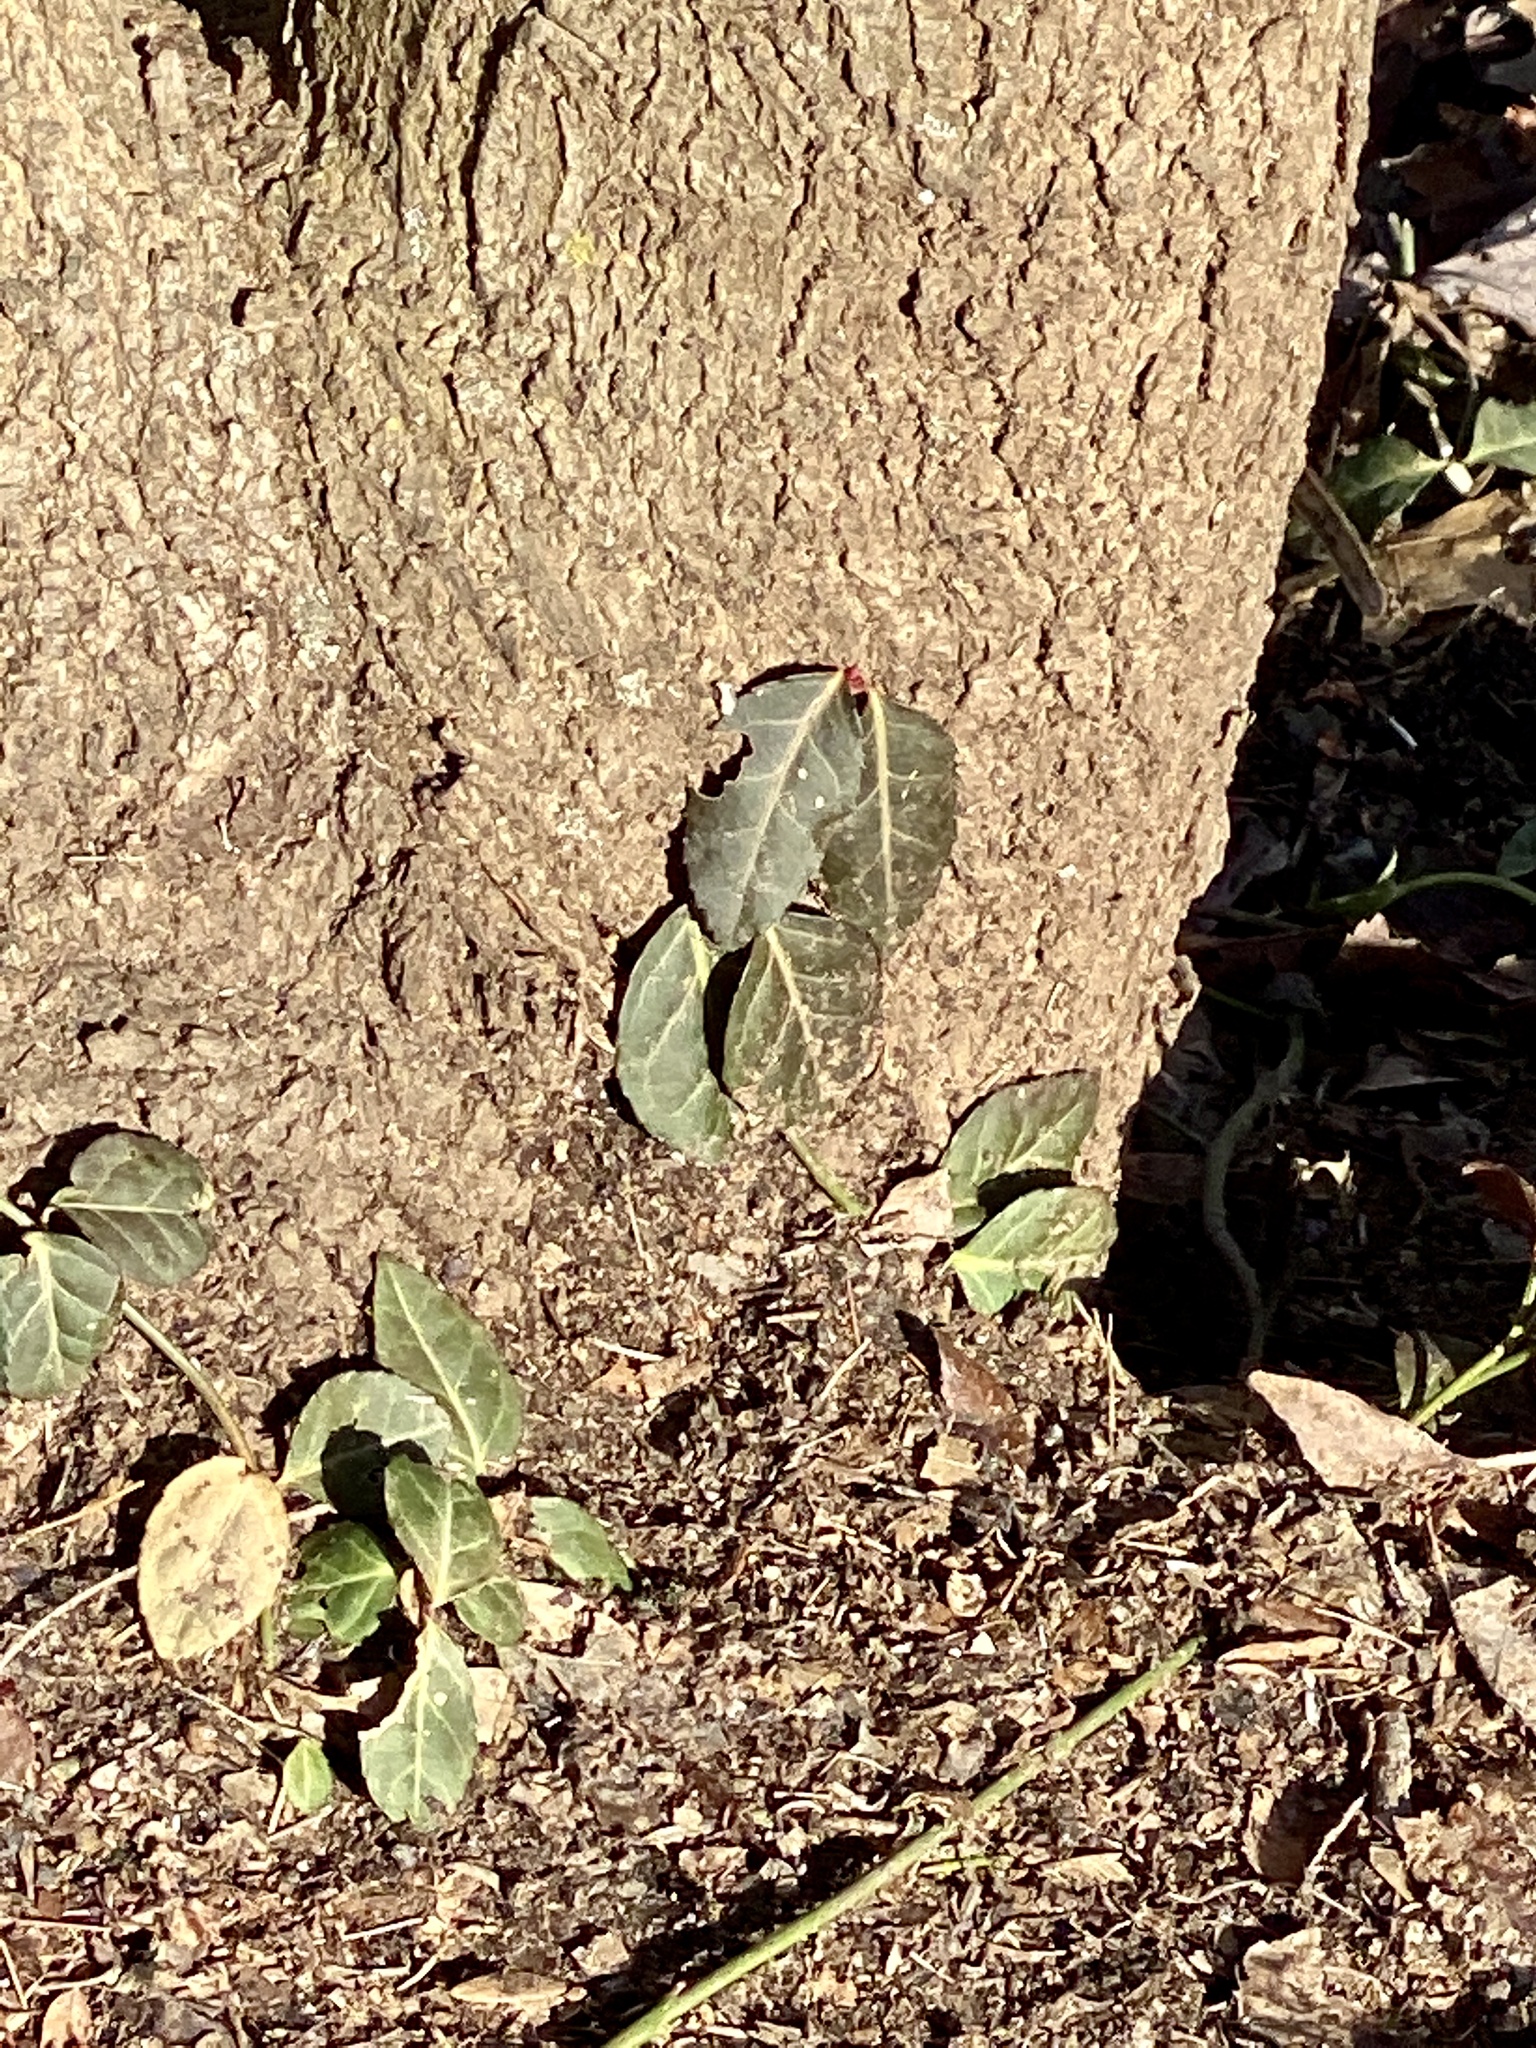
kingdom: Plantae
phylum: Tracheophyta
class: Magnoliopsida
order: Celastrales
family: Celastraceae
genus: Euonymus
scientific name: Euonymus fortunei
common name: Climbing euonymus
